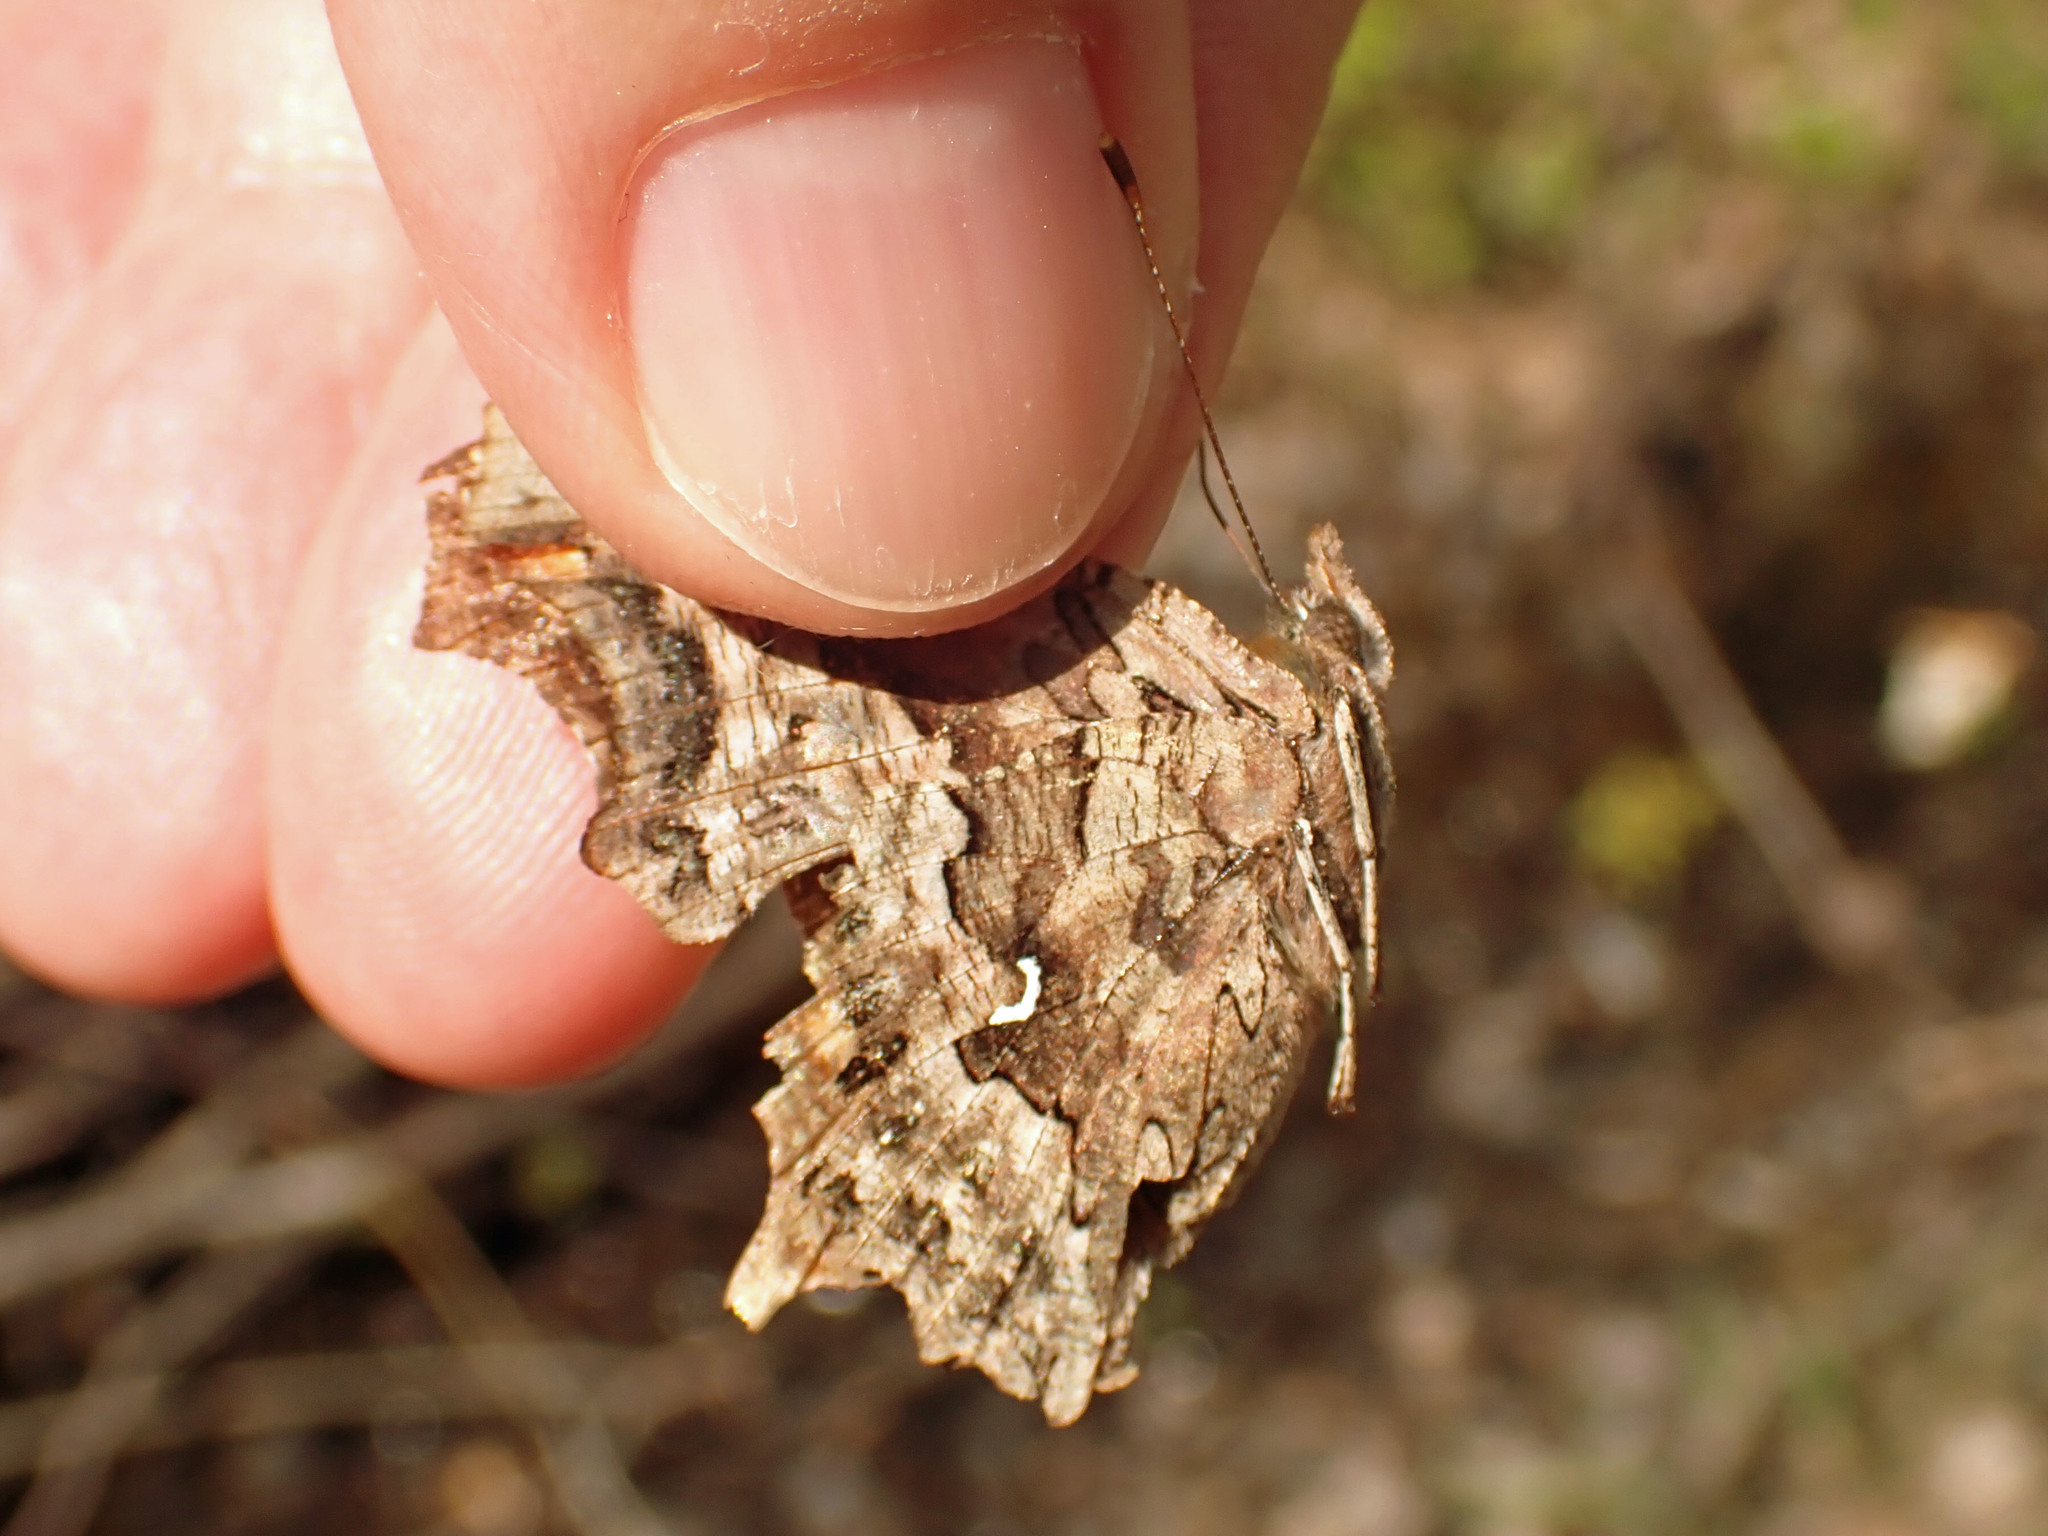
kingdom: Animalia
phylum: Arthropoda
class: Insecta
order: Lepidoptera
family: Nymphalidae
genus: Polygonia
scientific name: Polygonia faunus
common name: Green comma
